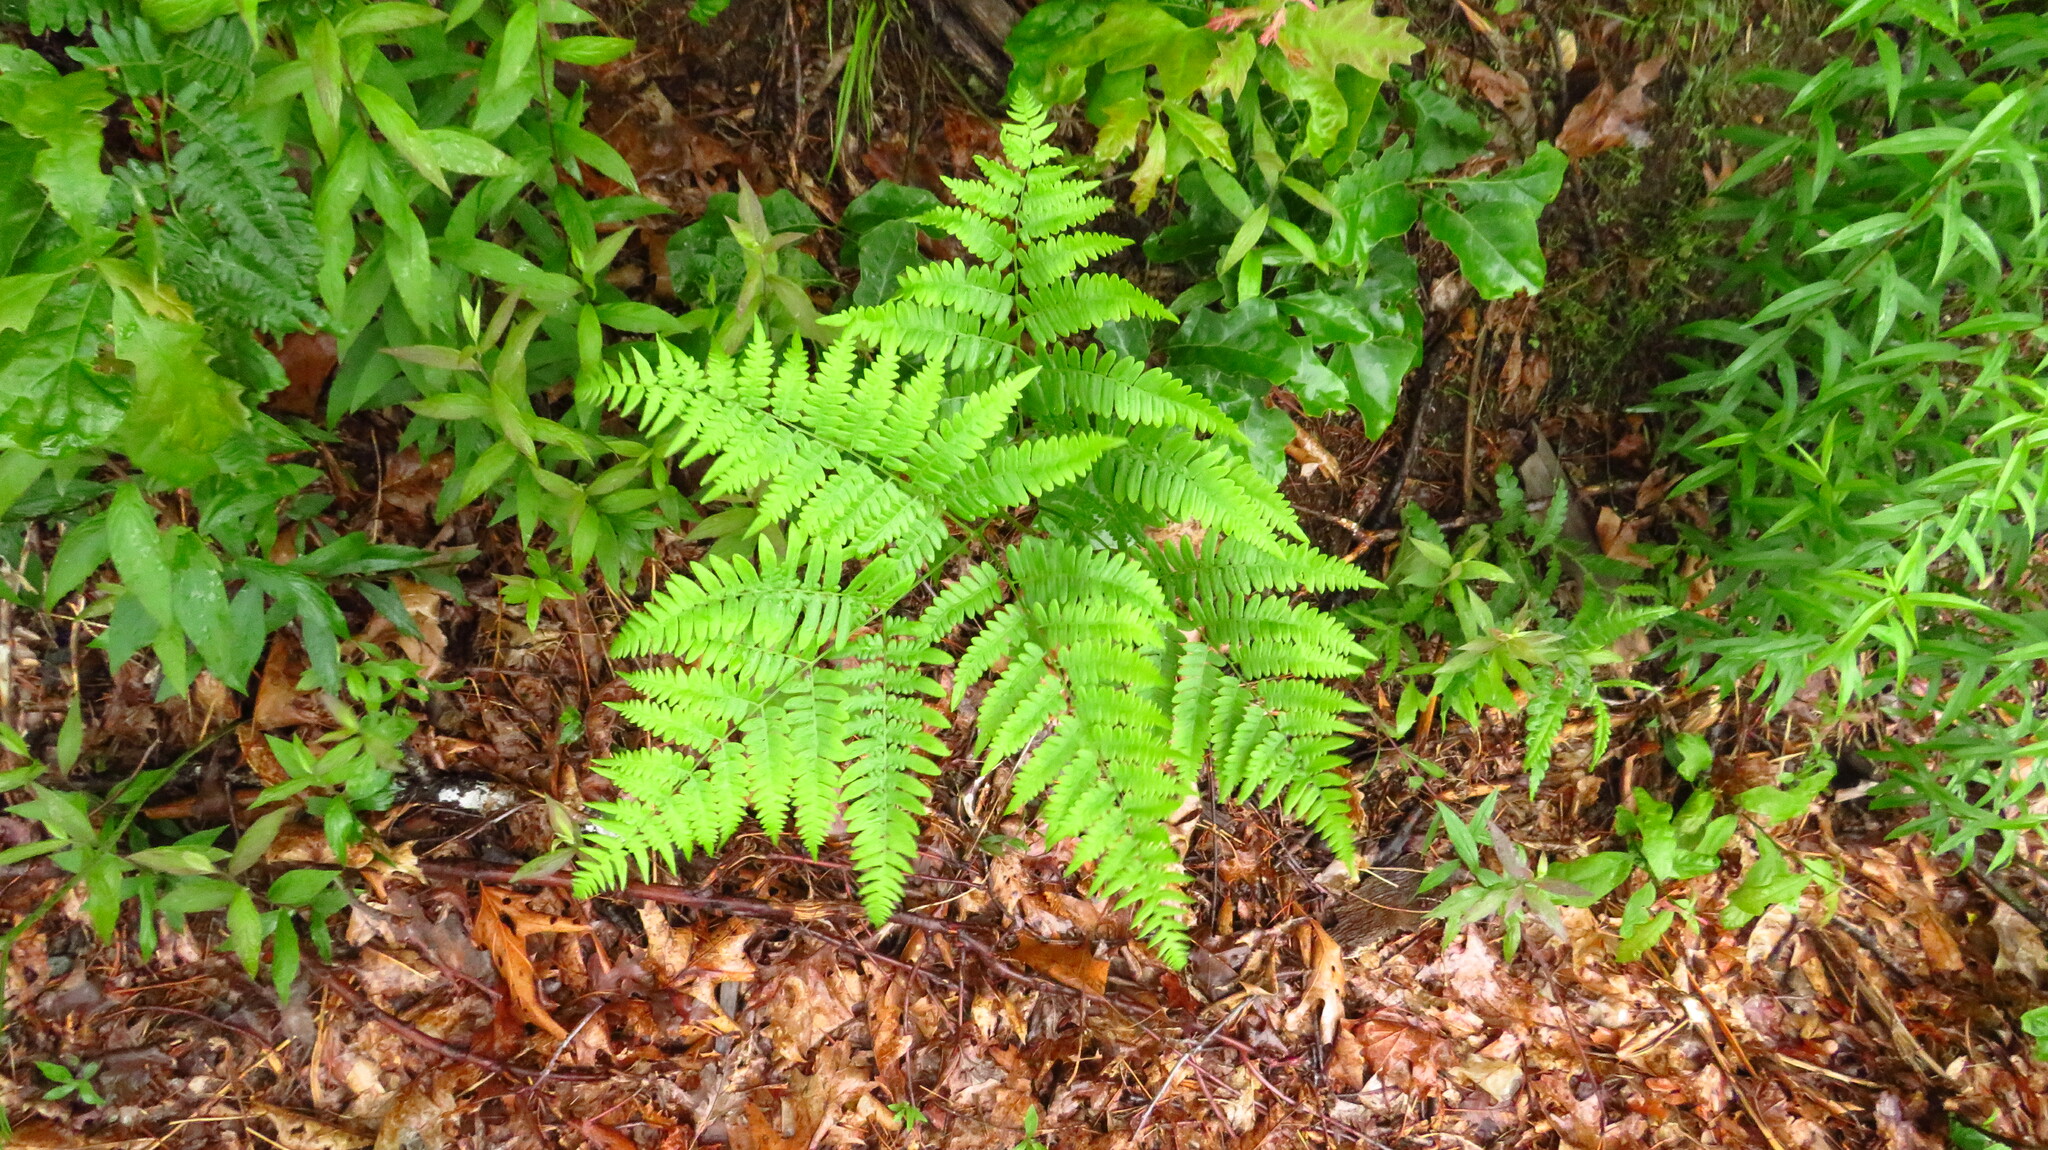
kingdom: Plantae
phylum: Tracheophyta
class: Polypodiopsida
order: Polypodiales
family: Dennstaedtiaceae
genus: Pteridium
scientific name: Pteridium aquilinum
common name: Bracken
